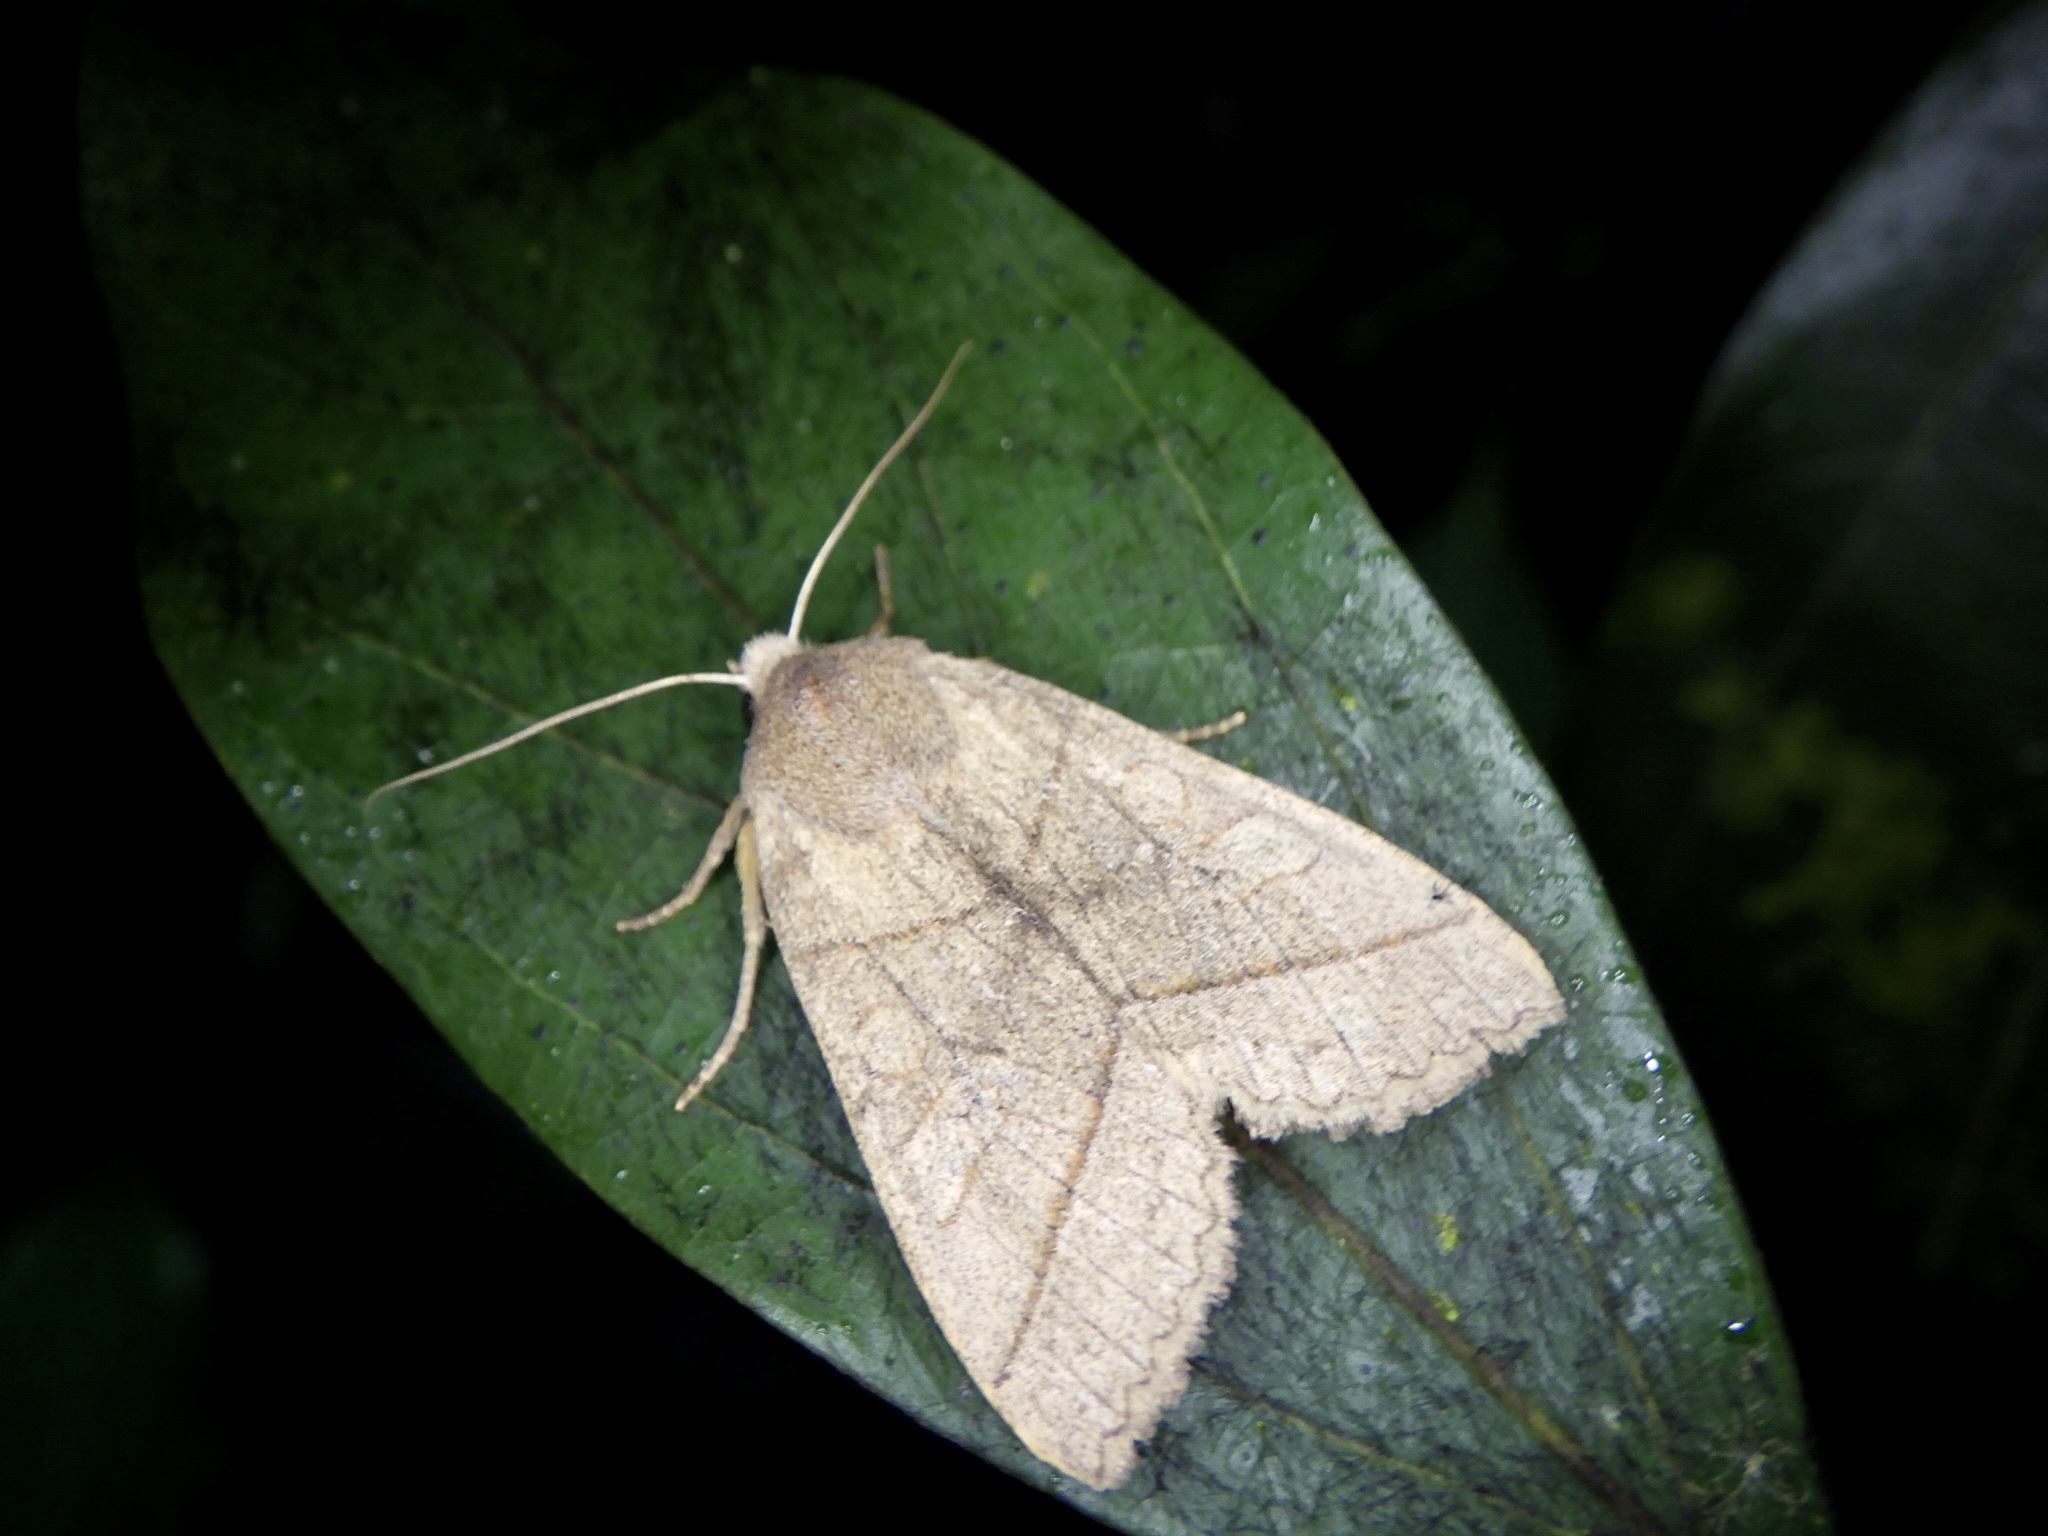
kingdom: Animalia
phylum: Arthropoda
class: Insecta
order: Lepidoptera
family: Noctuidae
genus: Telorta
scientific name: Telorta divergens
